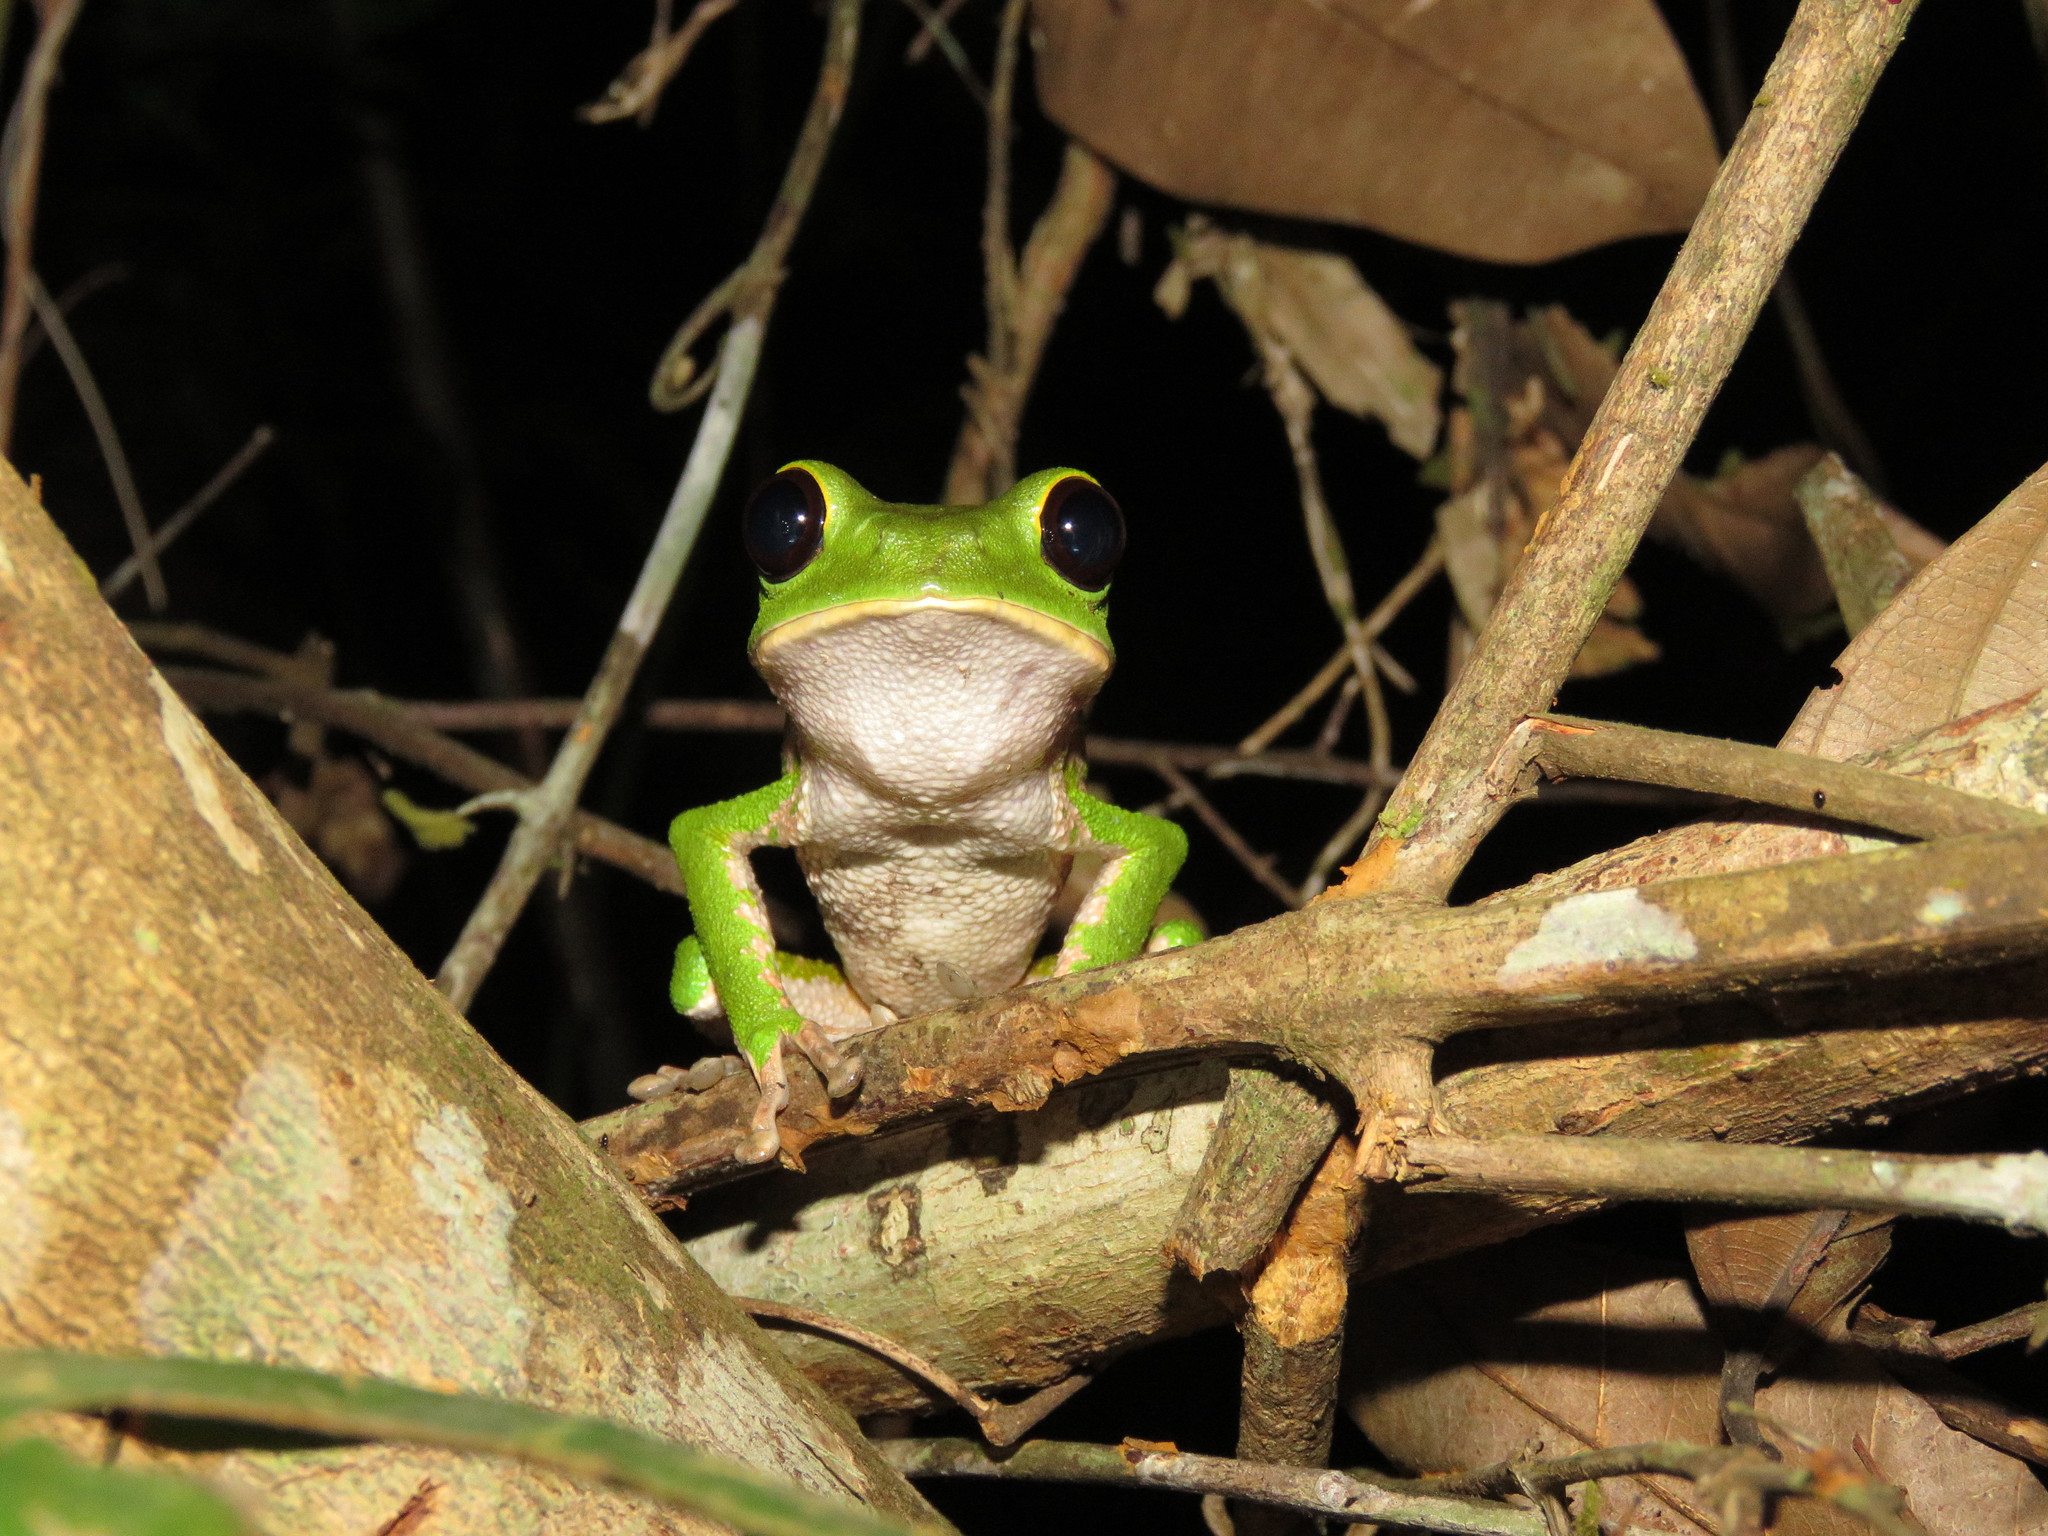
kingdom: Animalia
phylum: Chordata
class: Amphibia
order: Anura
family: Phyllomedusidae
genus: Phyllomedusa
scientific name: Phyllomedusa camba
